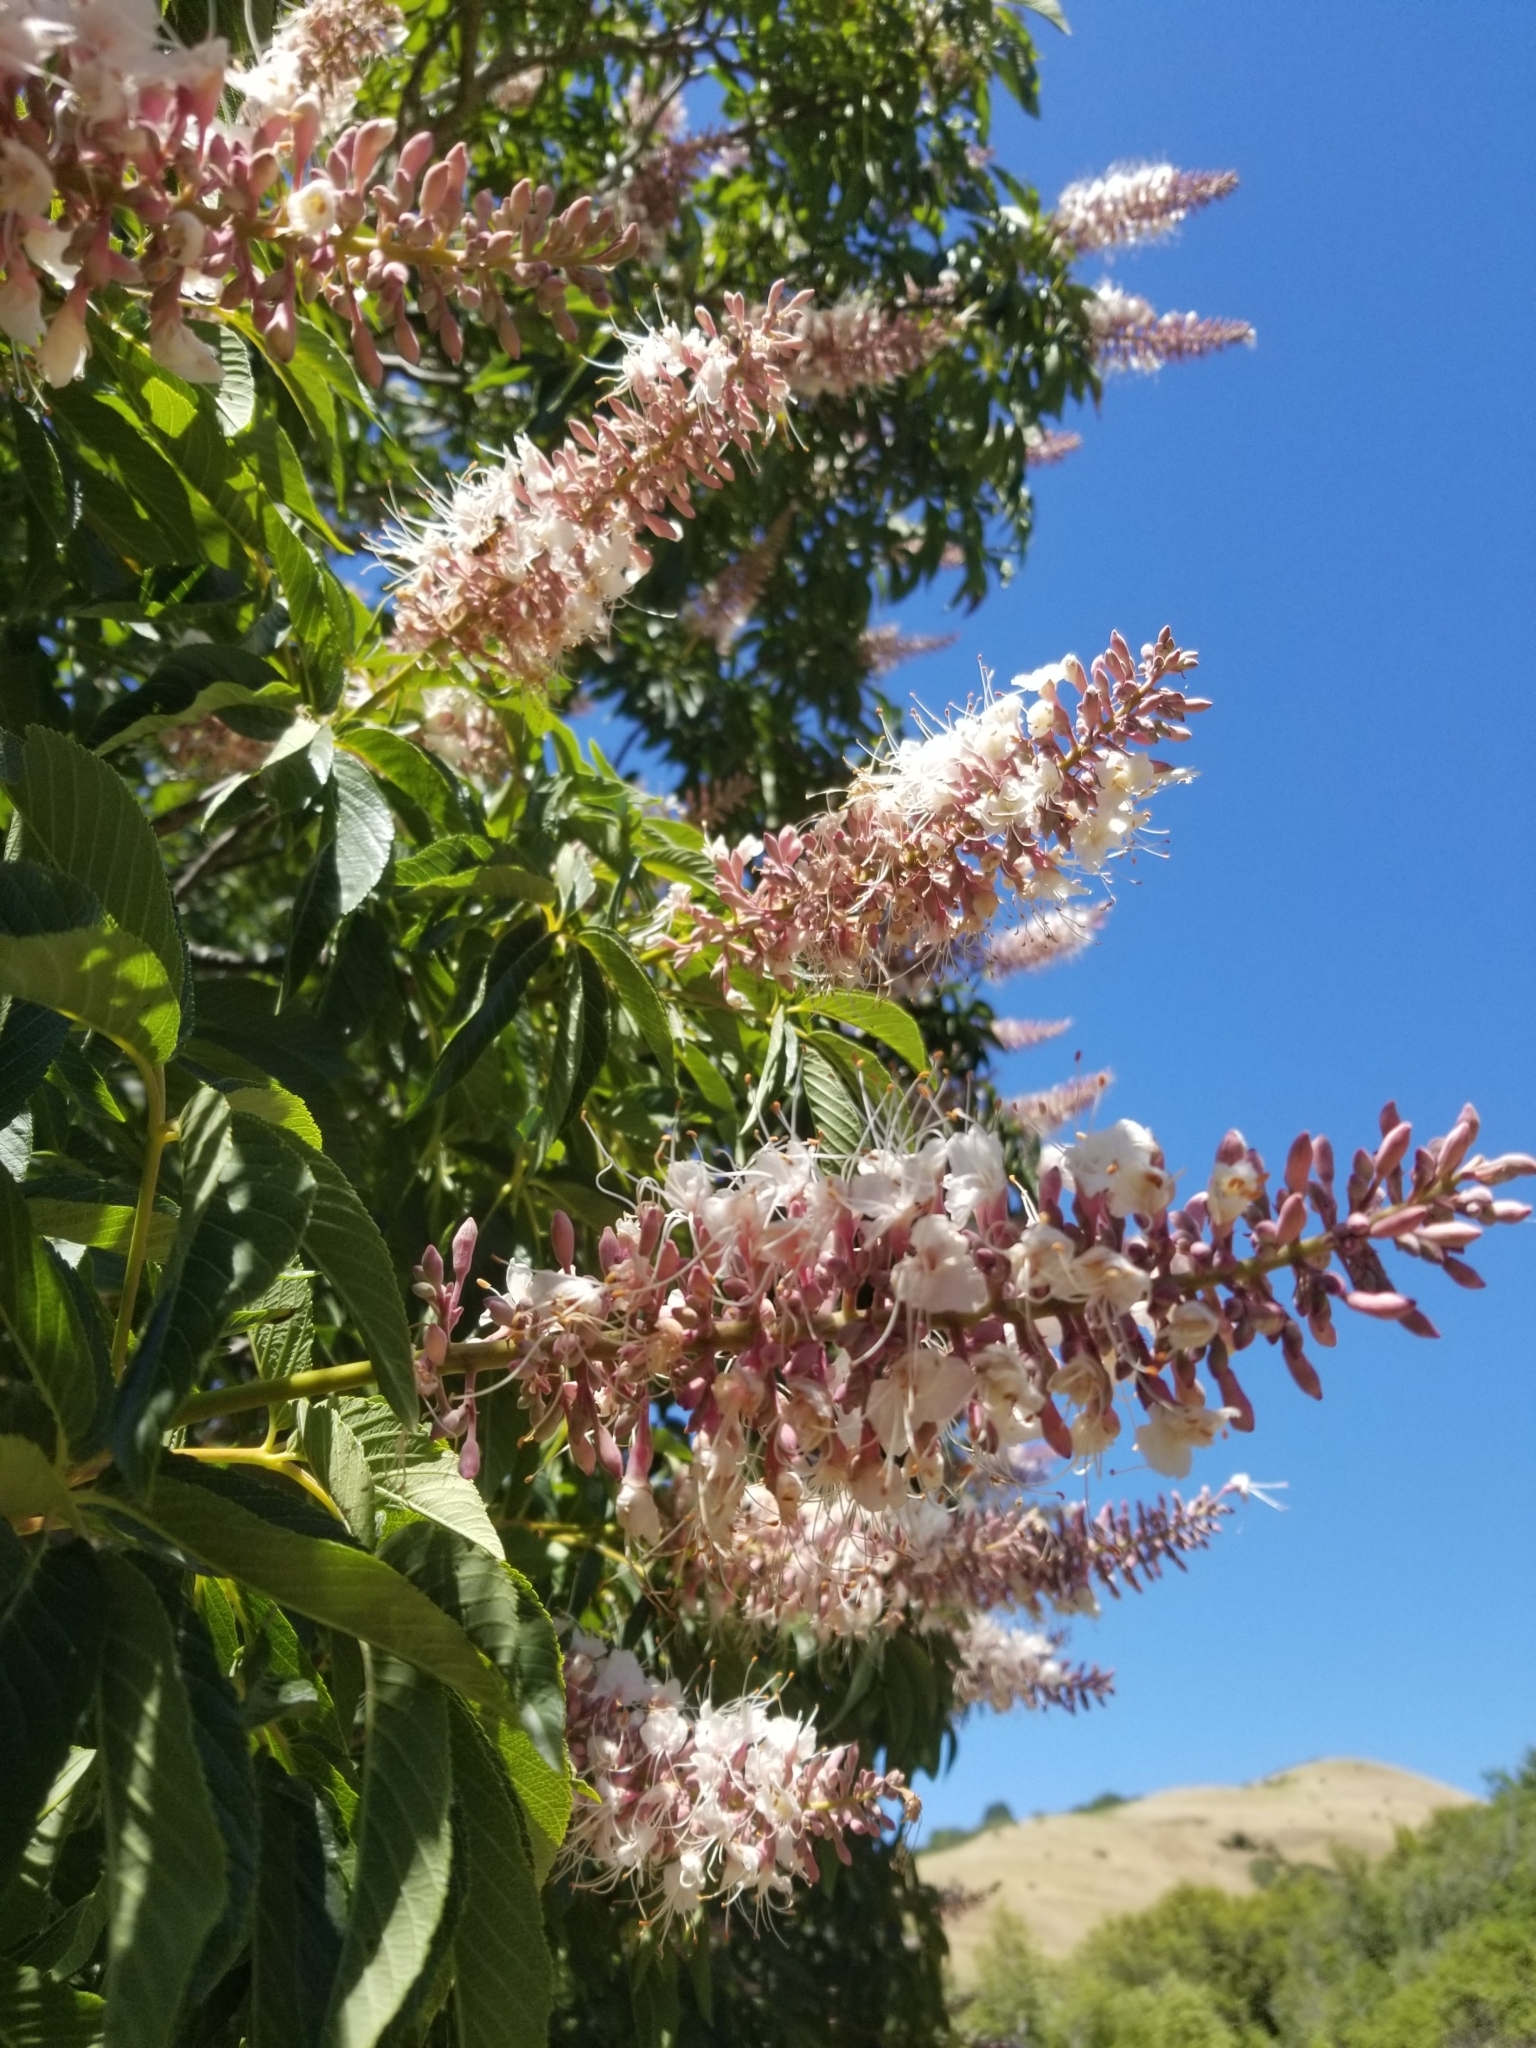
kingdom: Plantae
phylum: Tracheophyta
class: Magnoliopsida
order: Sapindales
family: Sapindaceae
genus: Aesculus
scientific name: Aesculus californica
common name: California buckeye
